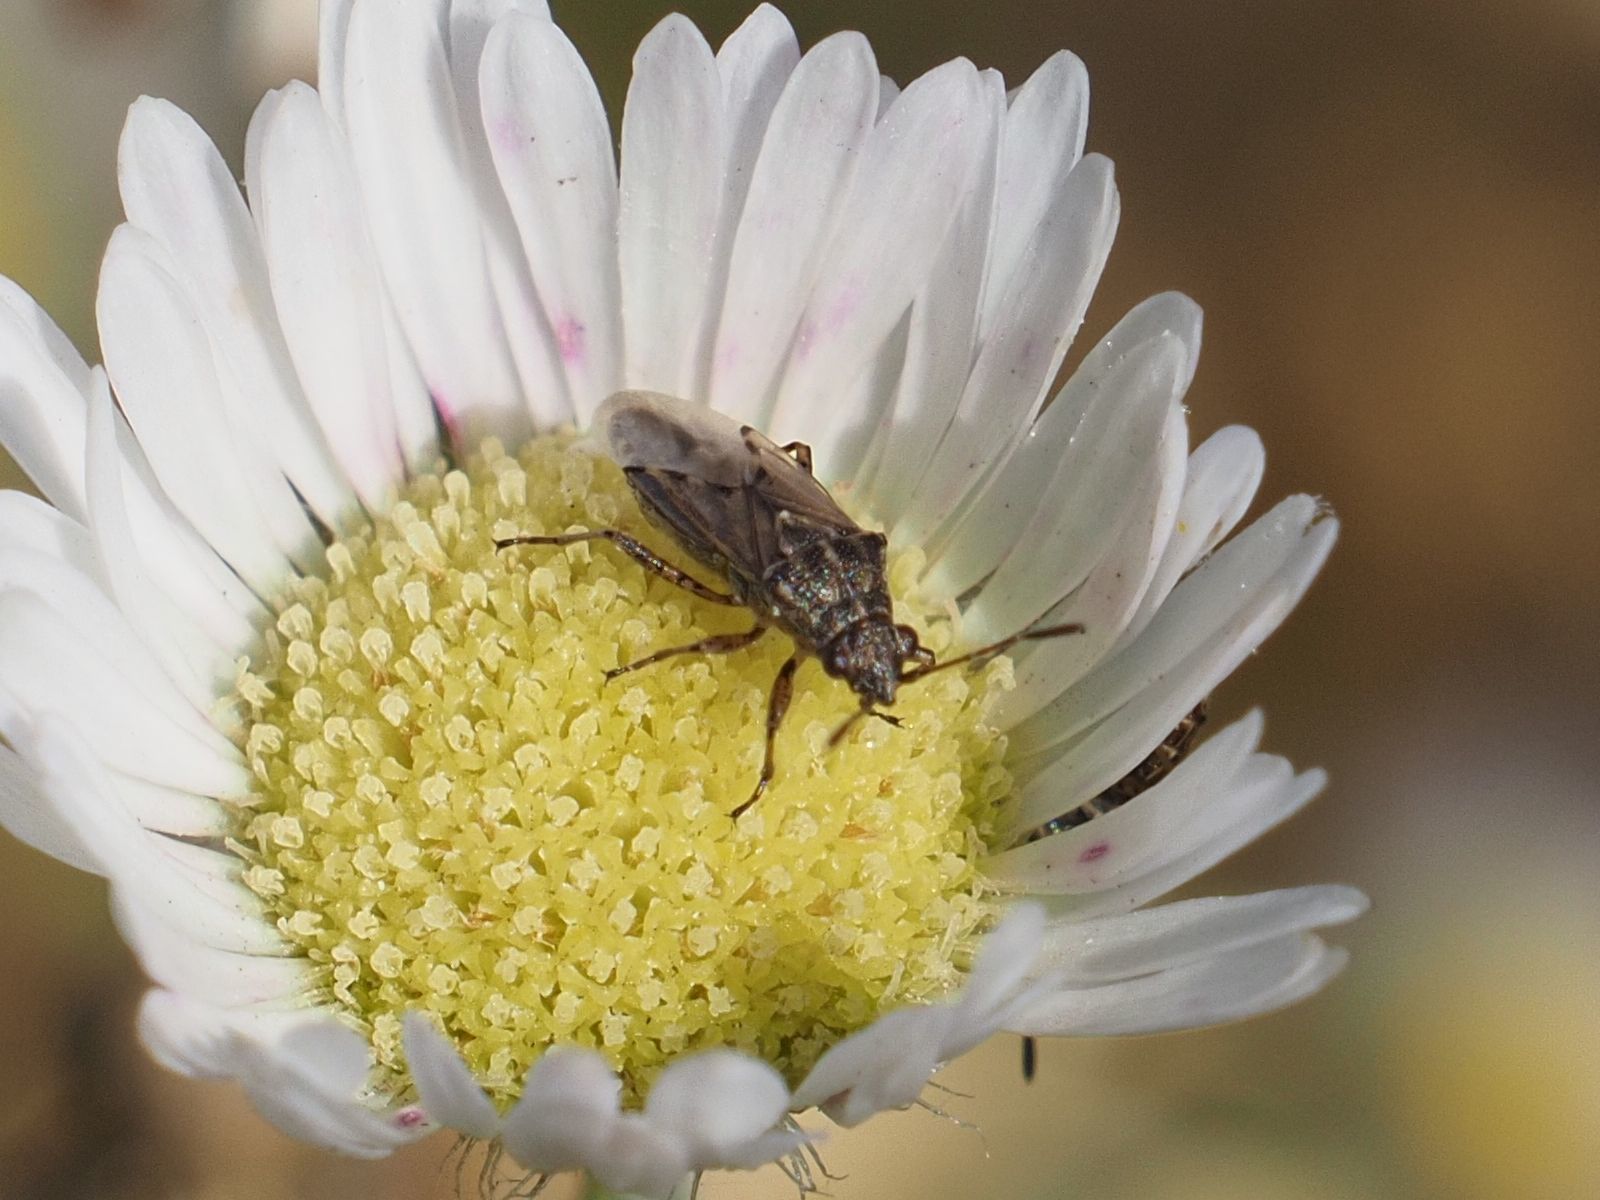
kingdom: Animalia
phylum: Arthropoda
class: Insecta
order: Hemiptera
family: Lygaeidae
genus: Nysius
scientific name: Nysius
